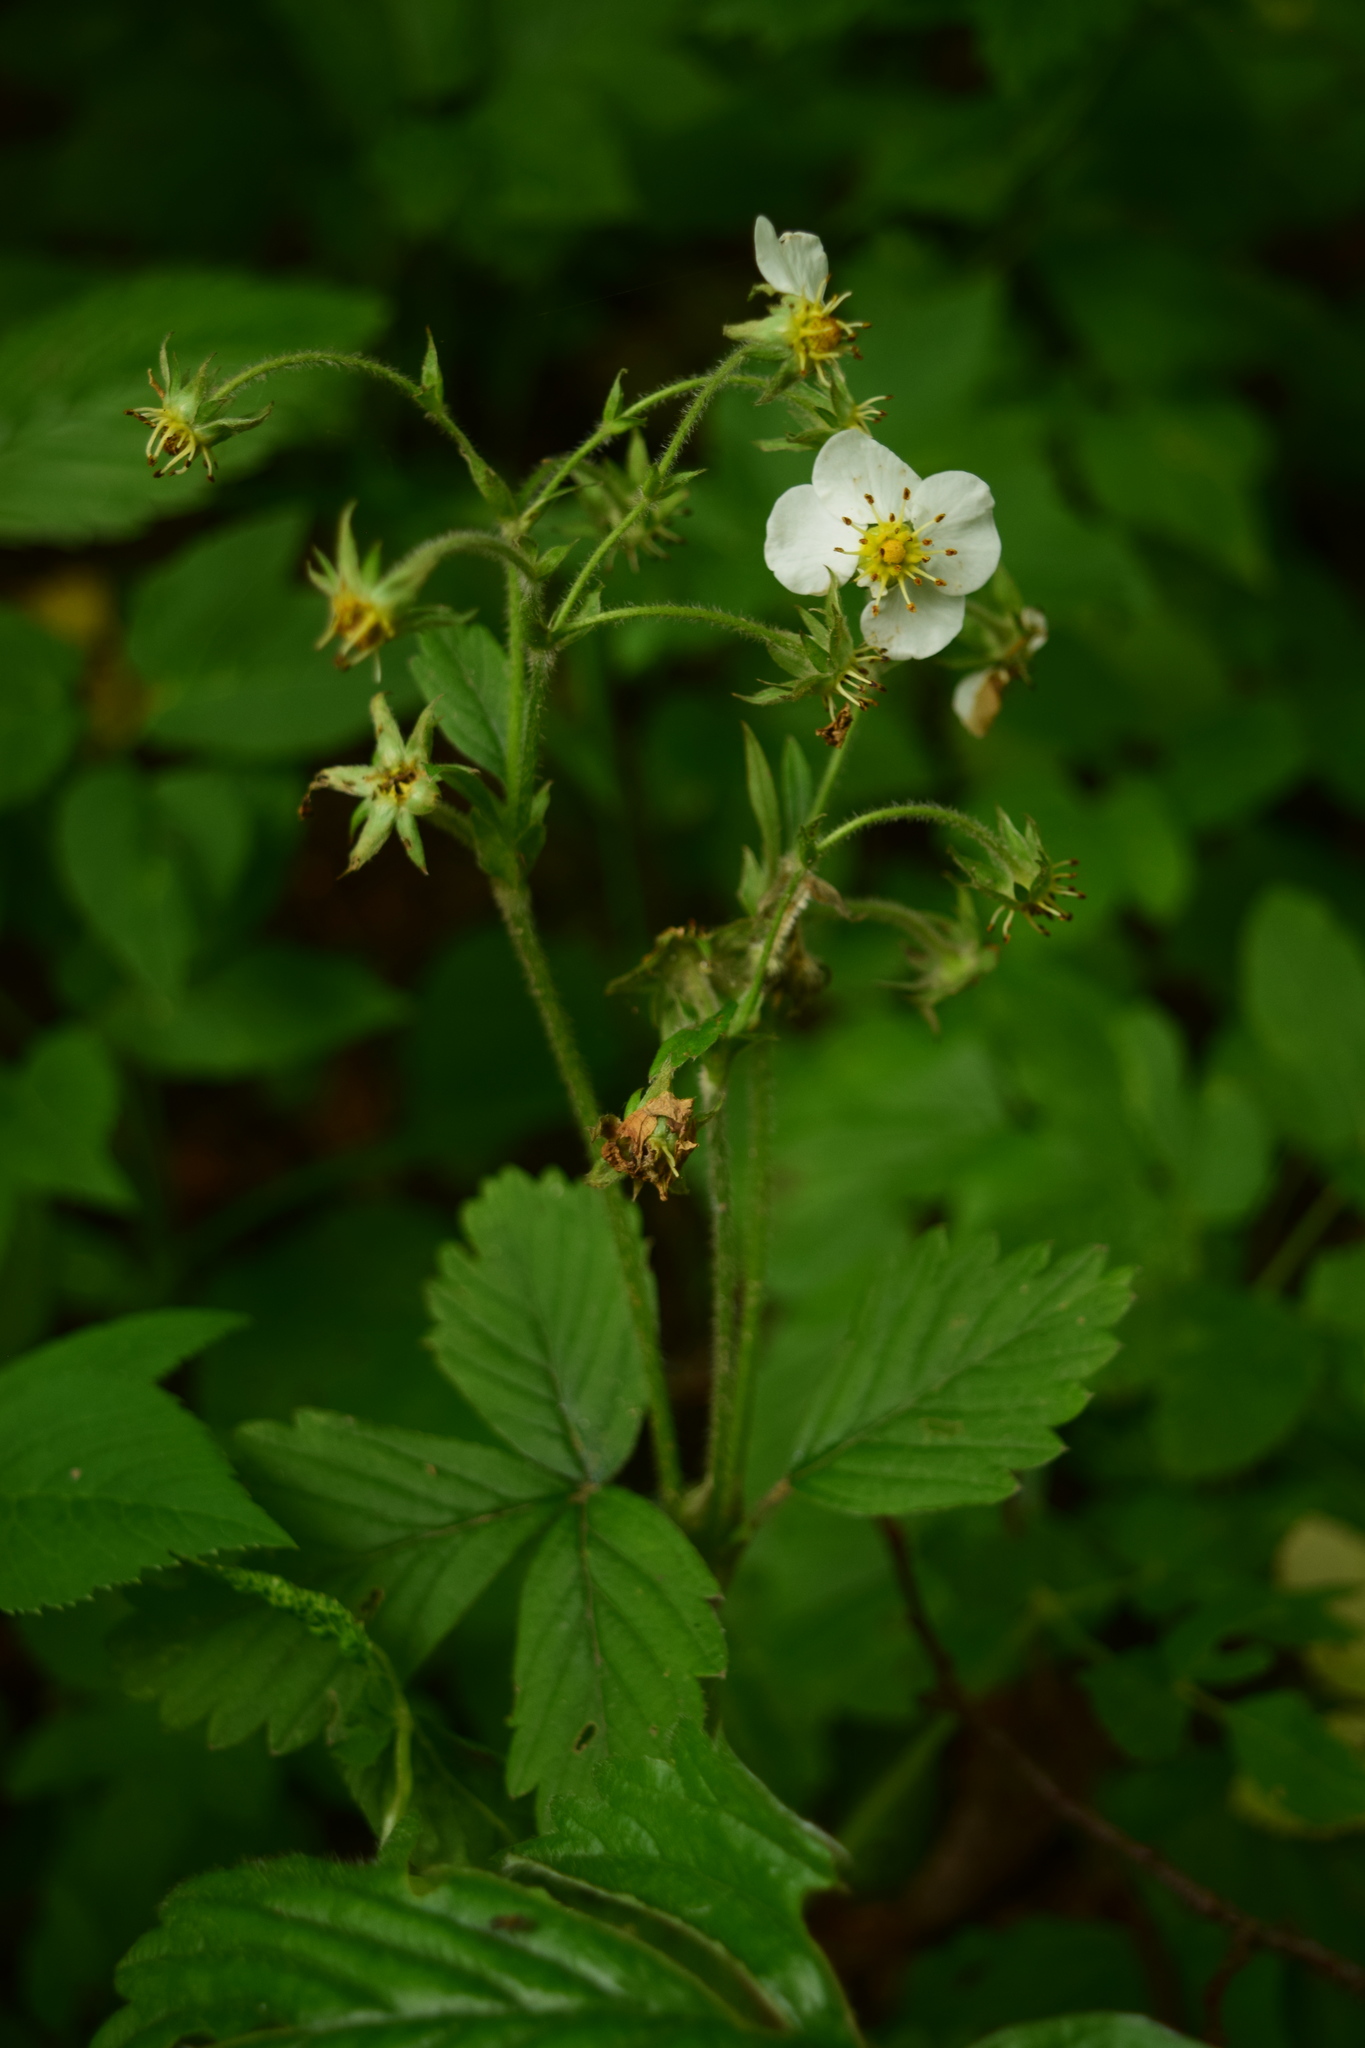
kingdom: Plantae
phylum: Tracheophyta
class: Magnoliopsida
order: Rosales
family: Rosaceae
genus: Fragaria
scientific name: Fragaria moschata
